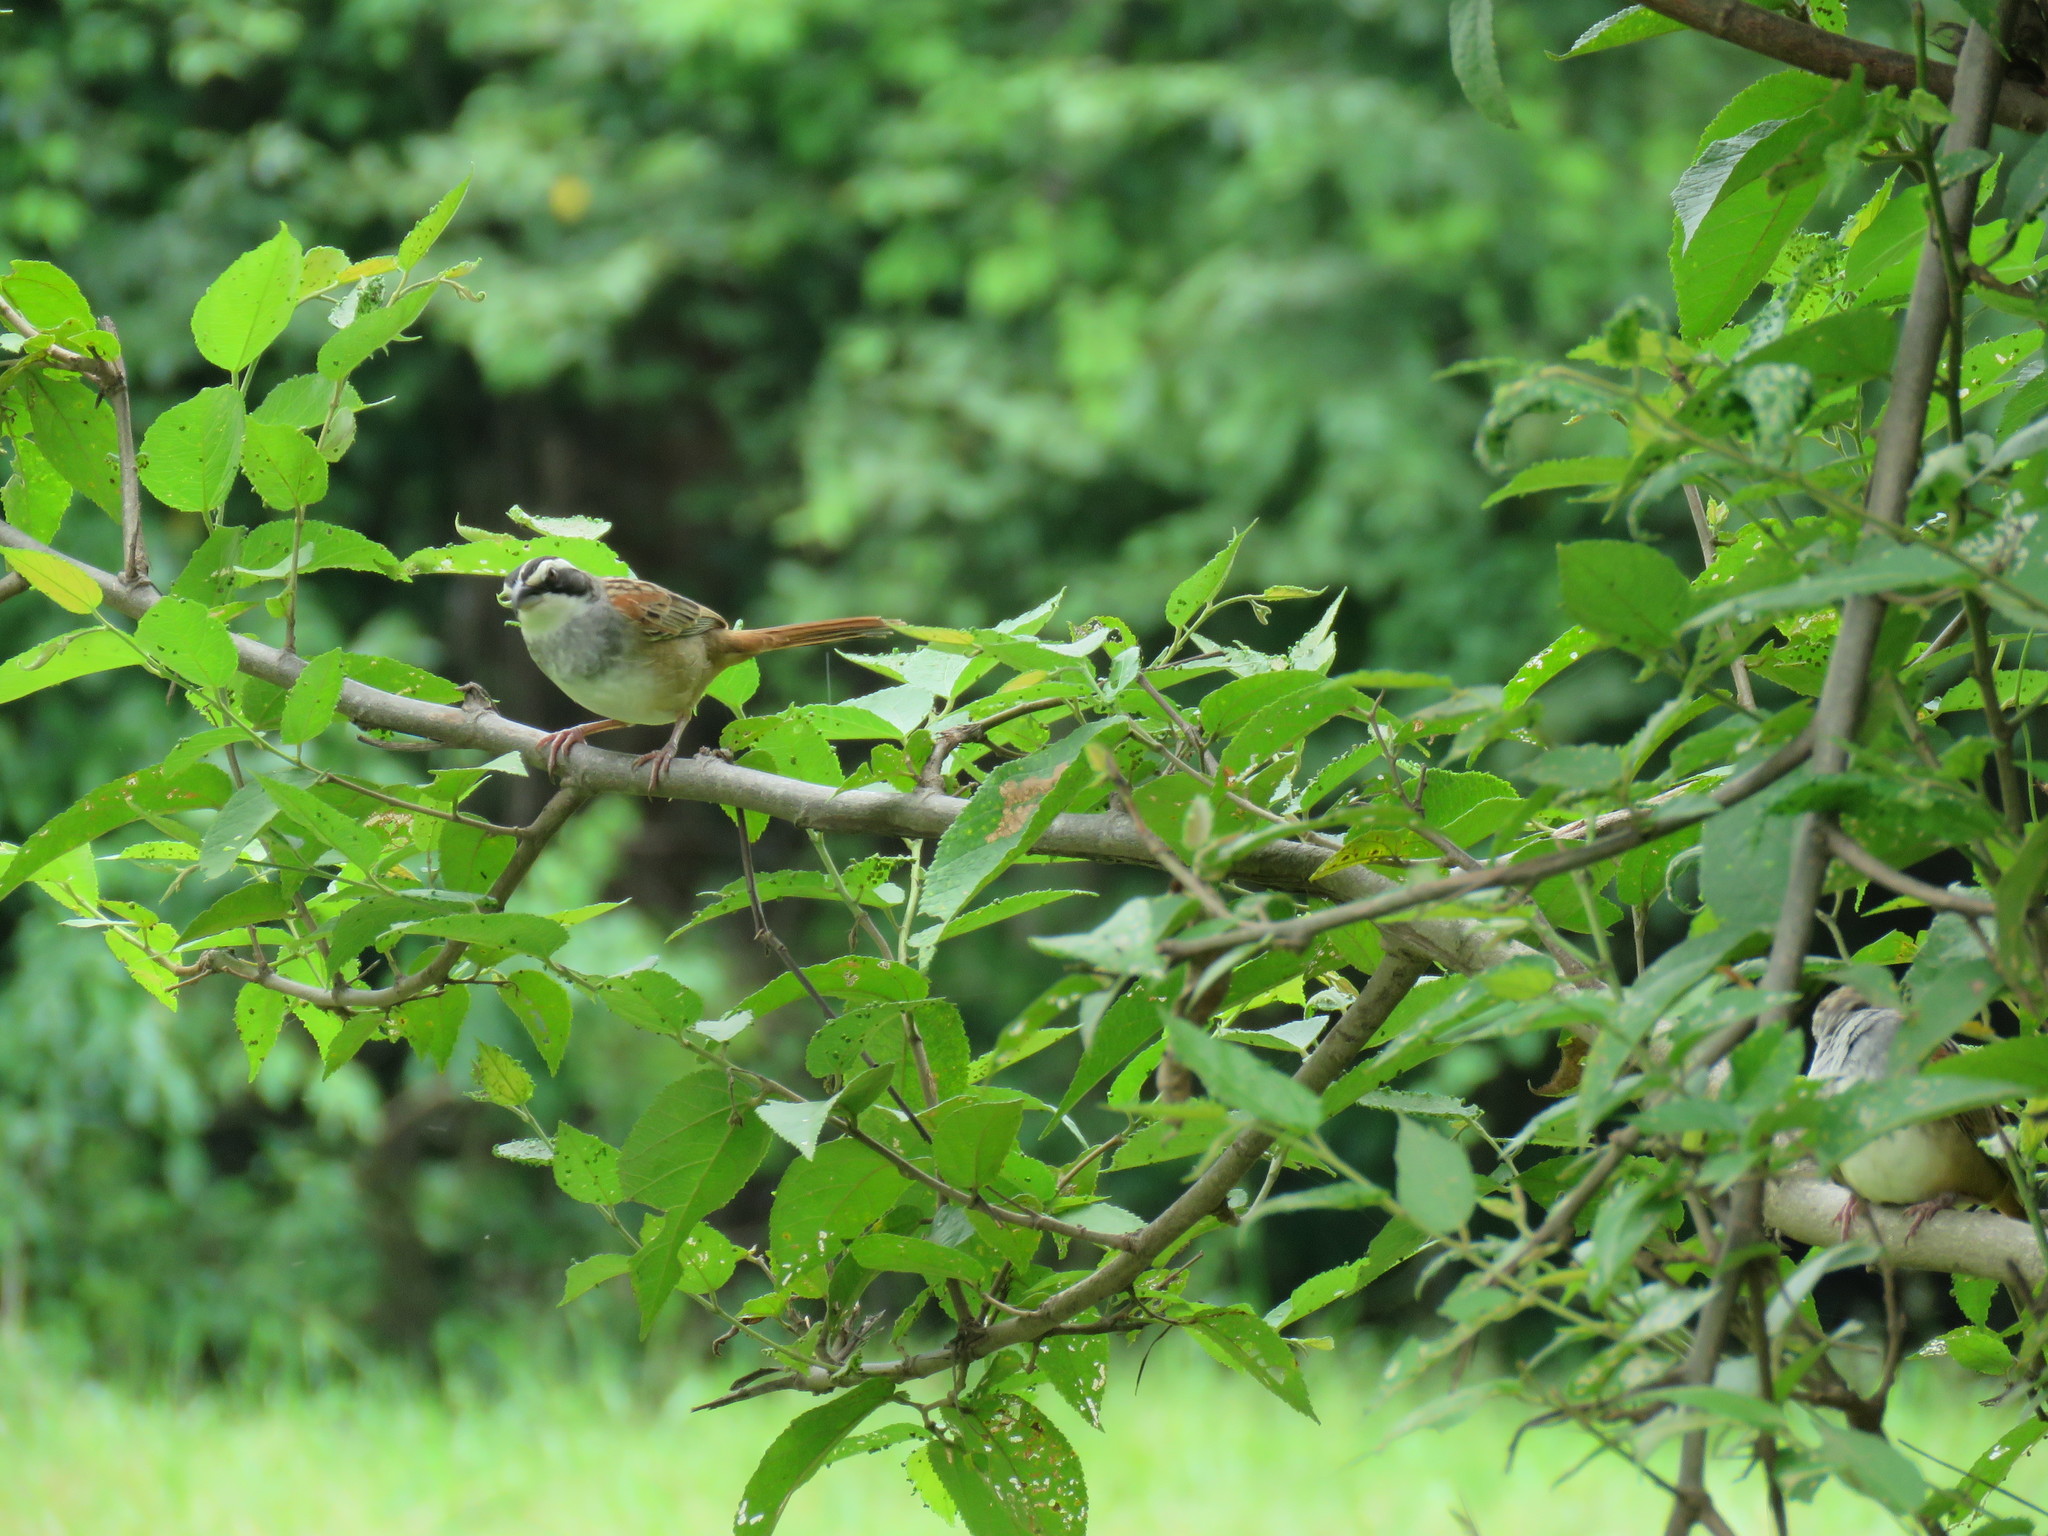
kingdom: Animalia
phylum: Chordata
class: Aves
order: Passeriformes
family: Passerellidae
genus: Peucaea
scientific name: Peucaea ruficauda
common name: Stripe-headed sparrow
